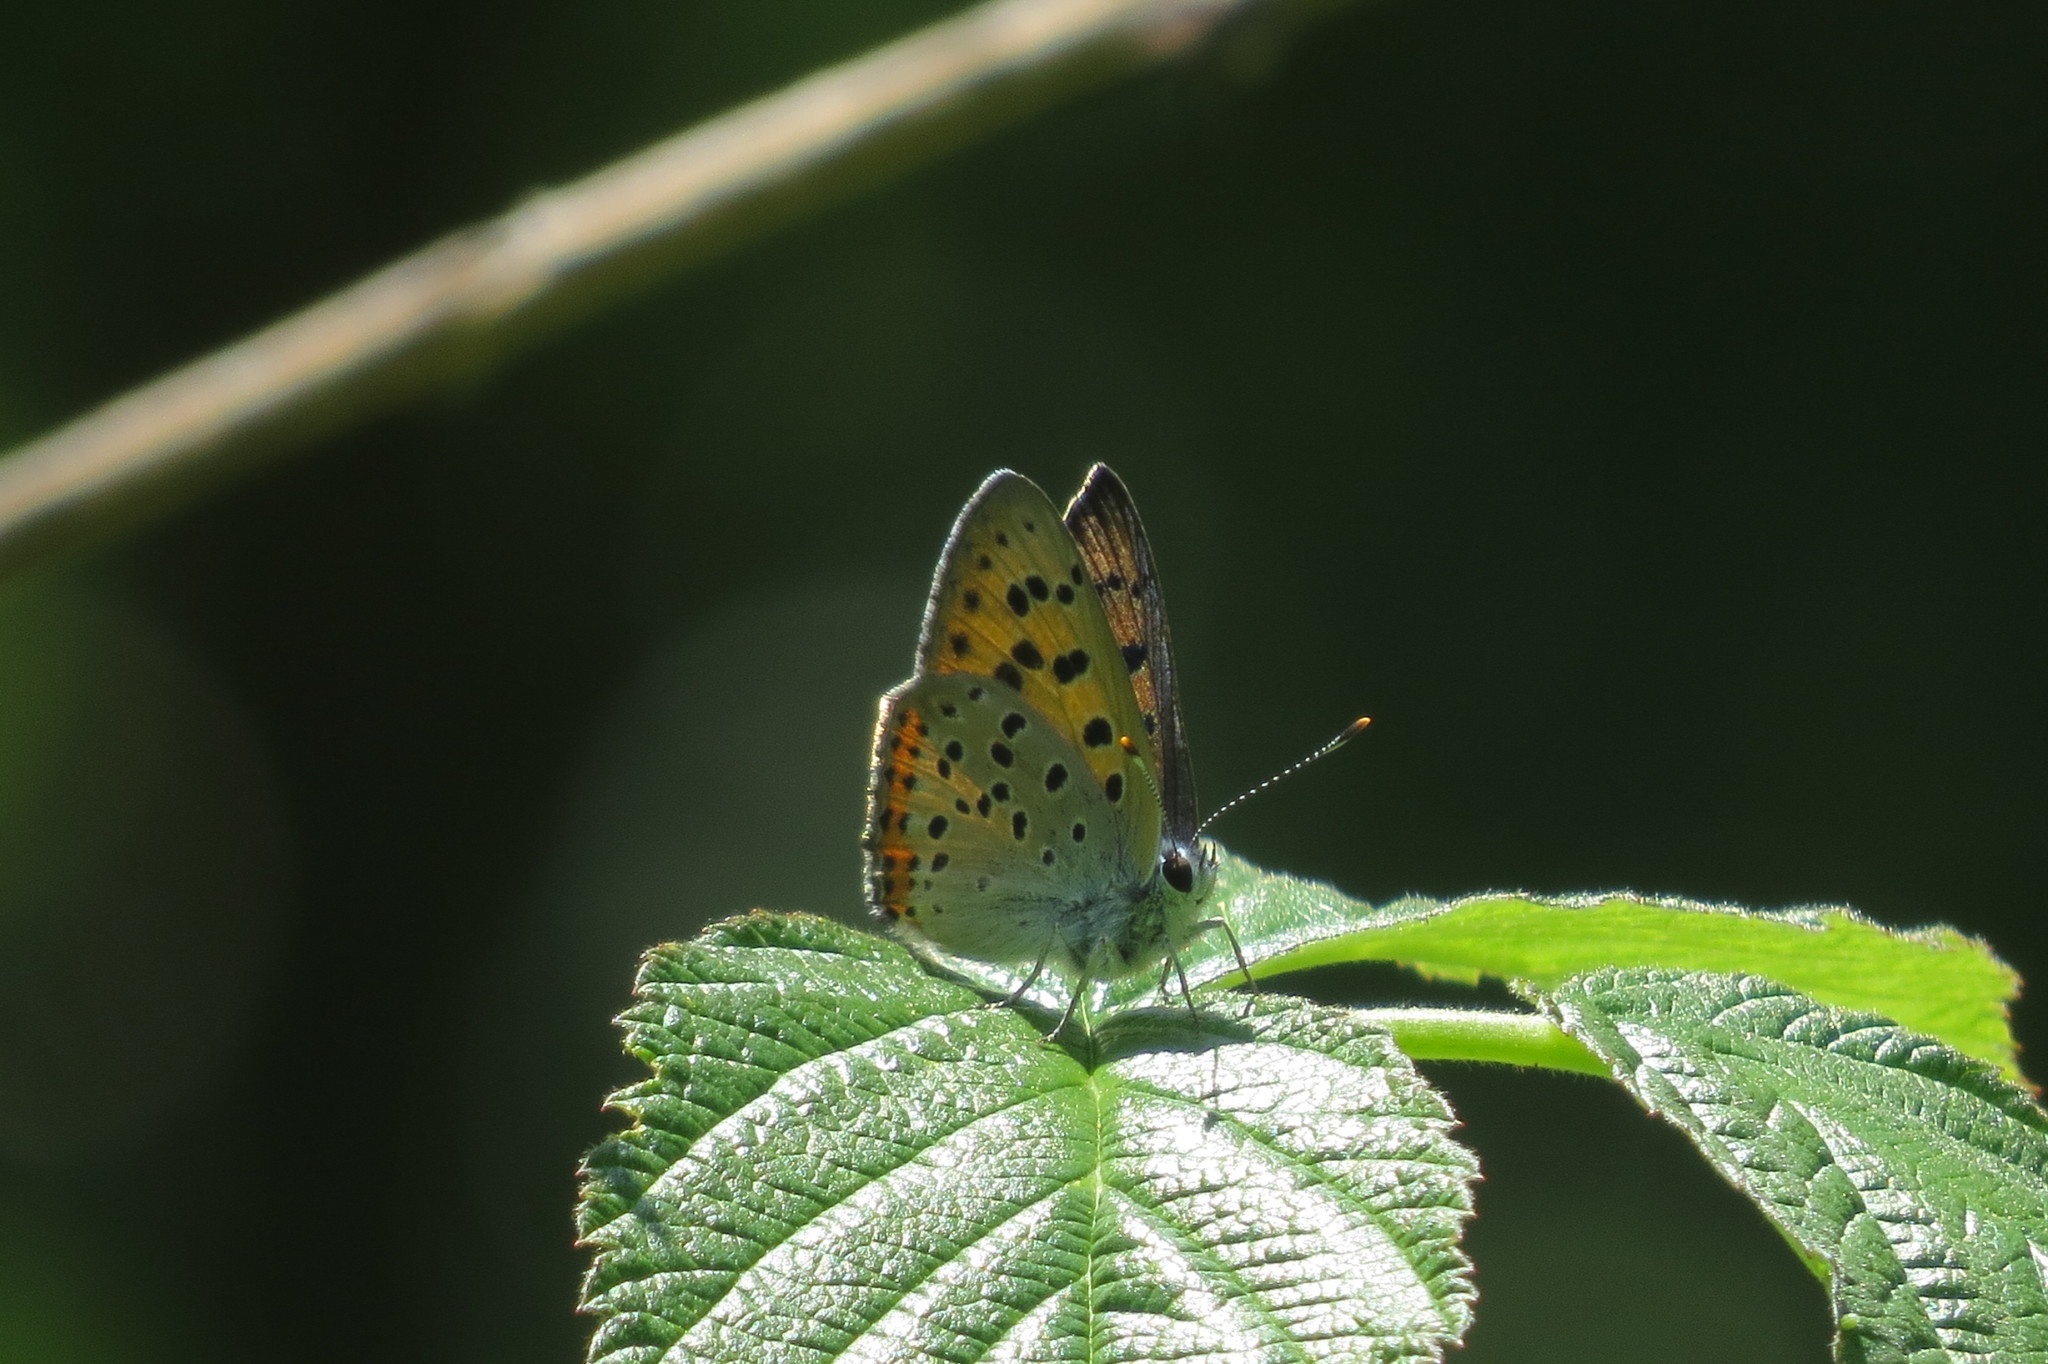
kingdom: Animalia
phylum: Arthropoda
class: Insecta
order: Lepidoptera
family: Lycaenidae
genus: Lycaena
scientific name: Lycaena alciphron
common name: Purple-shot copper
